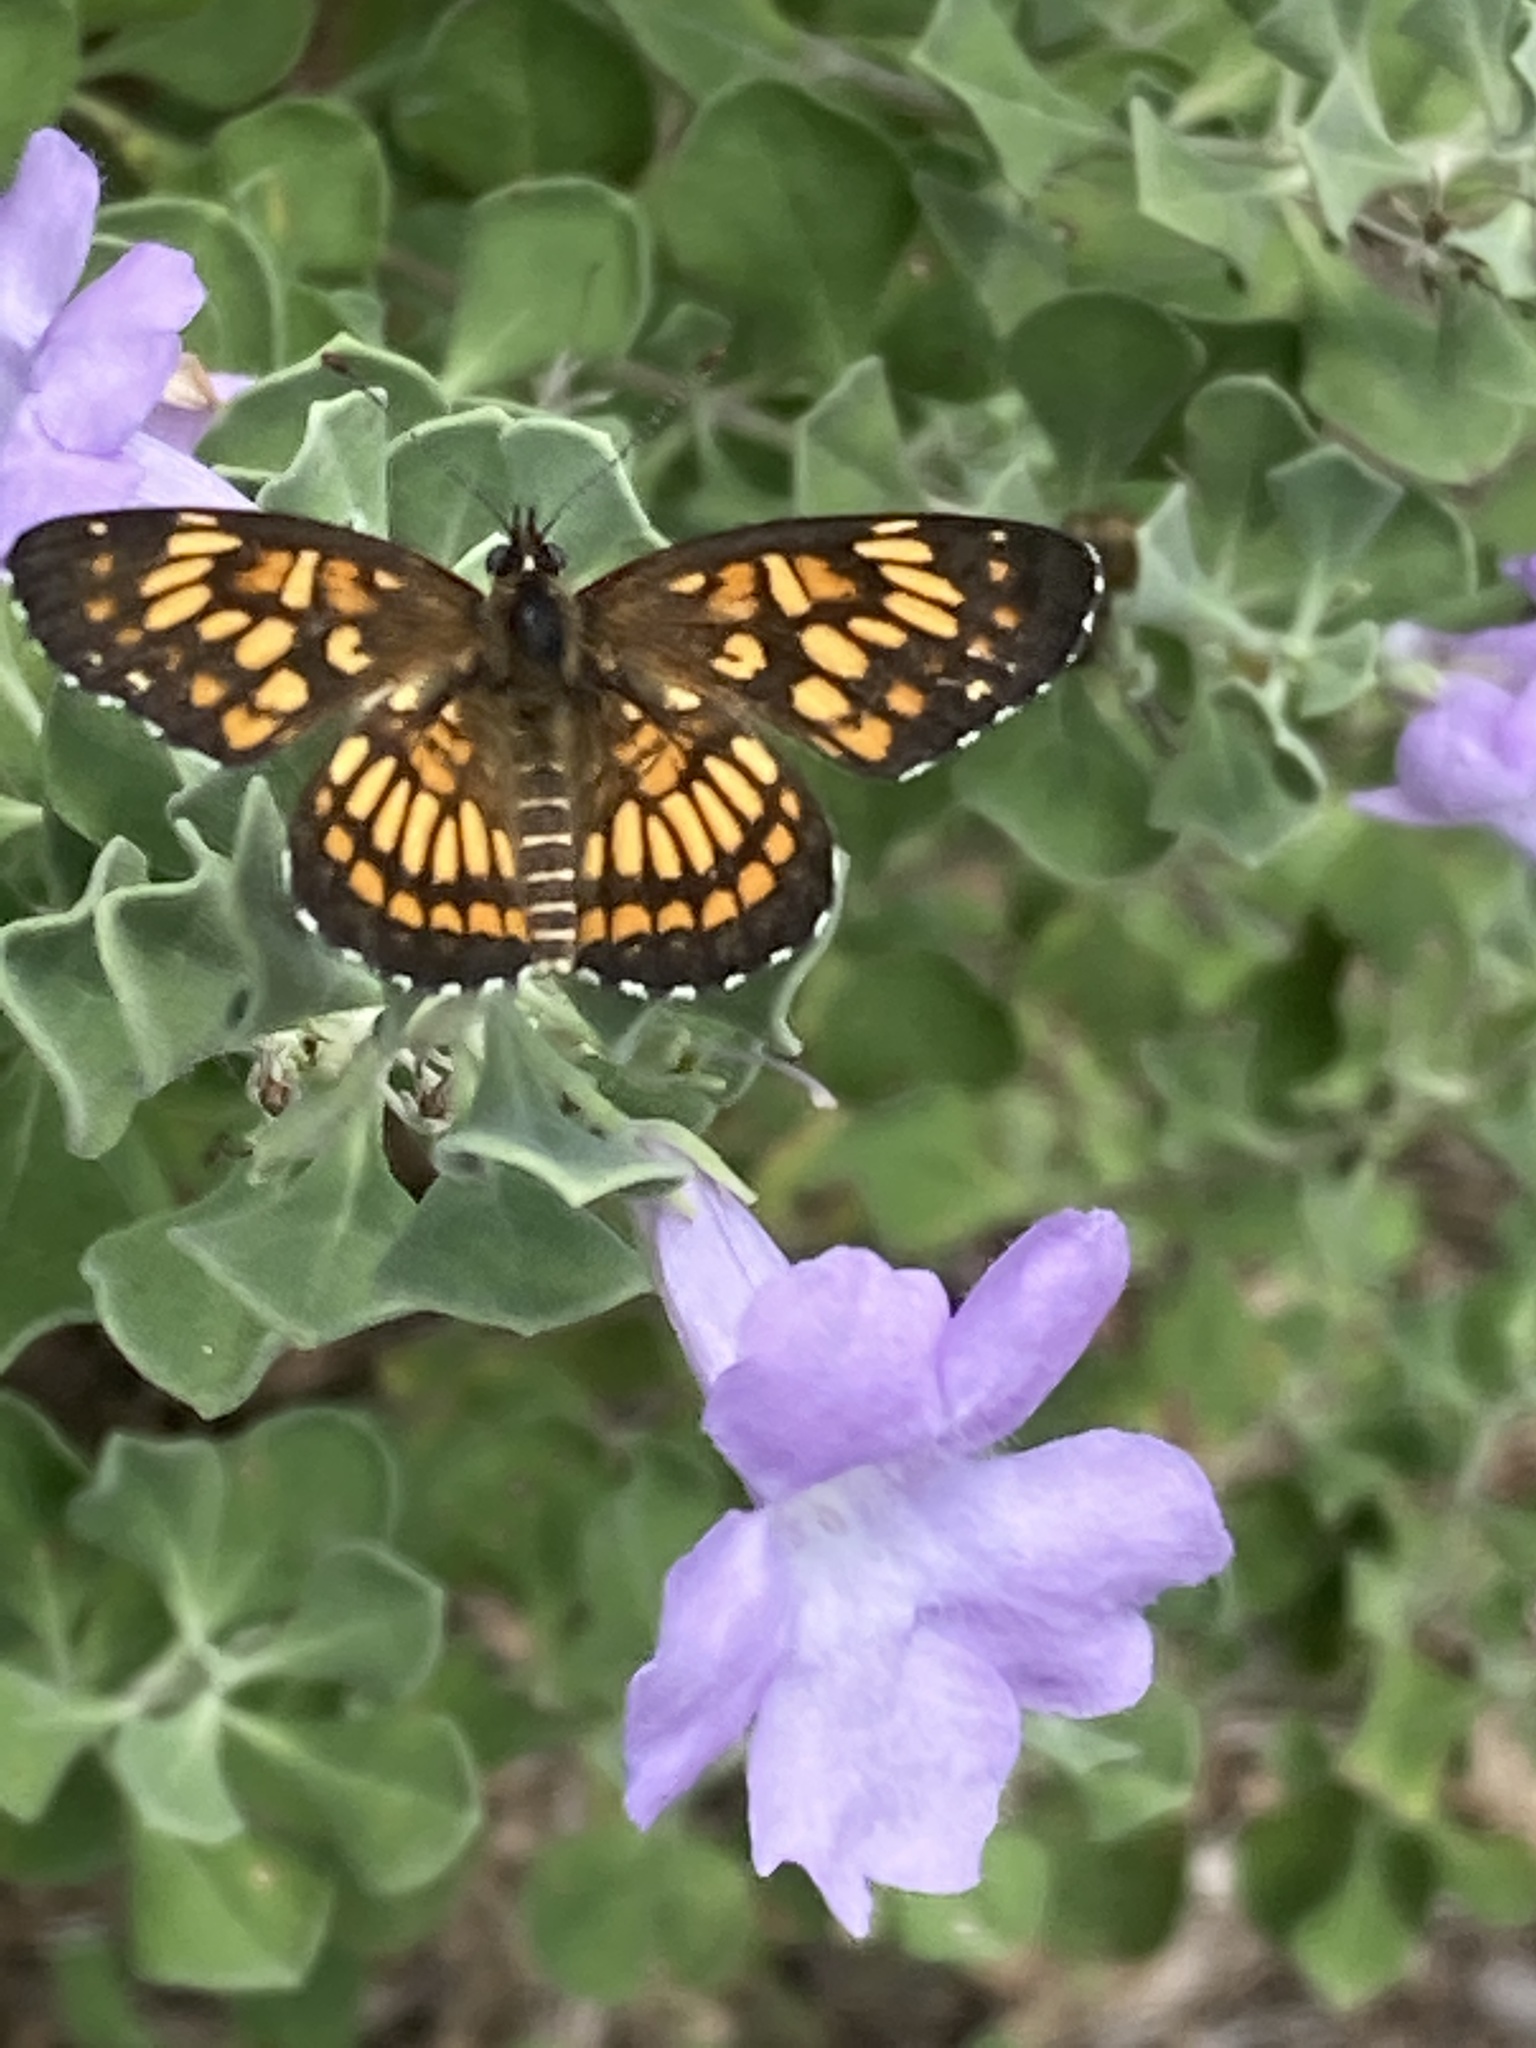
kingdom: Animalia
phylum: Arthropoda
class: Insecta
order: Lepidoptera
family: Nymphalidae
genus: Thessalia
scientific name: Thessalia theona
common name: Nymphalid moth
